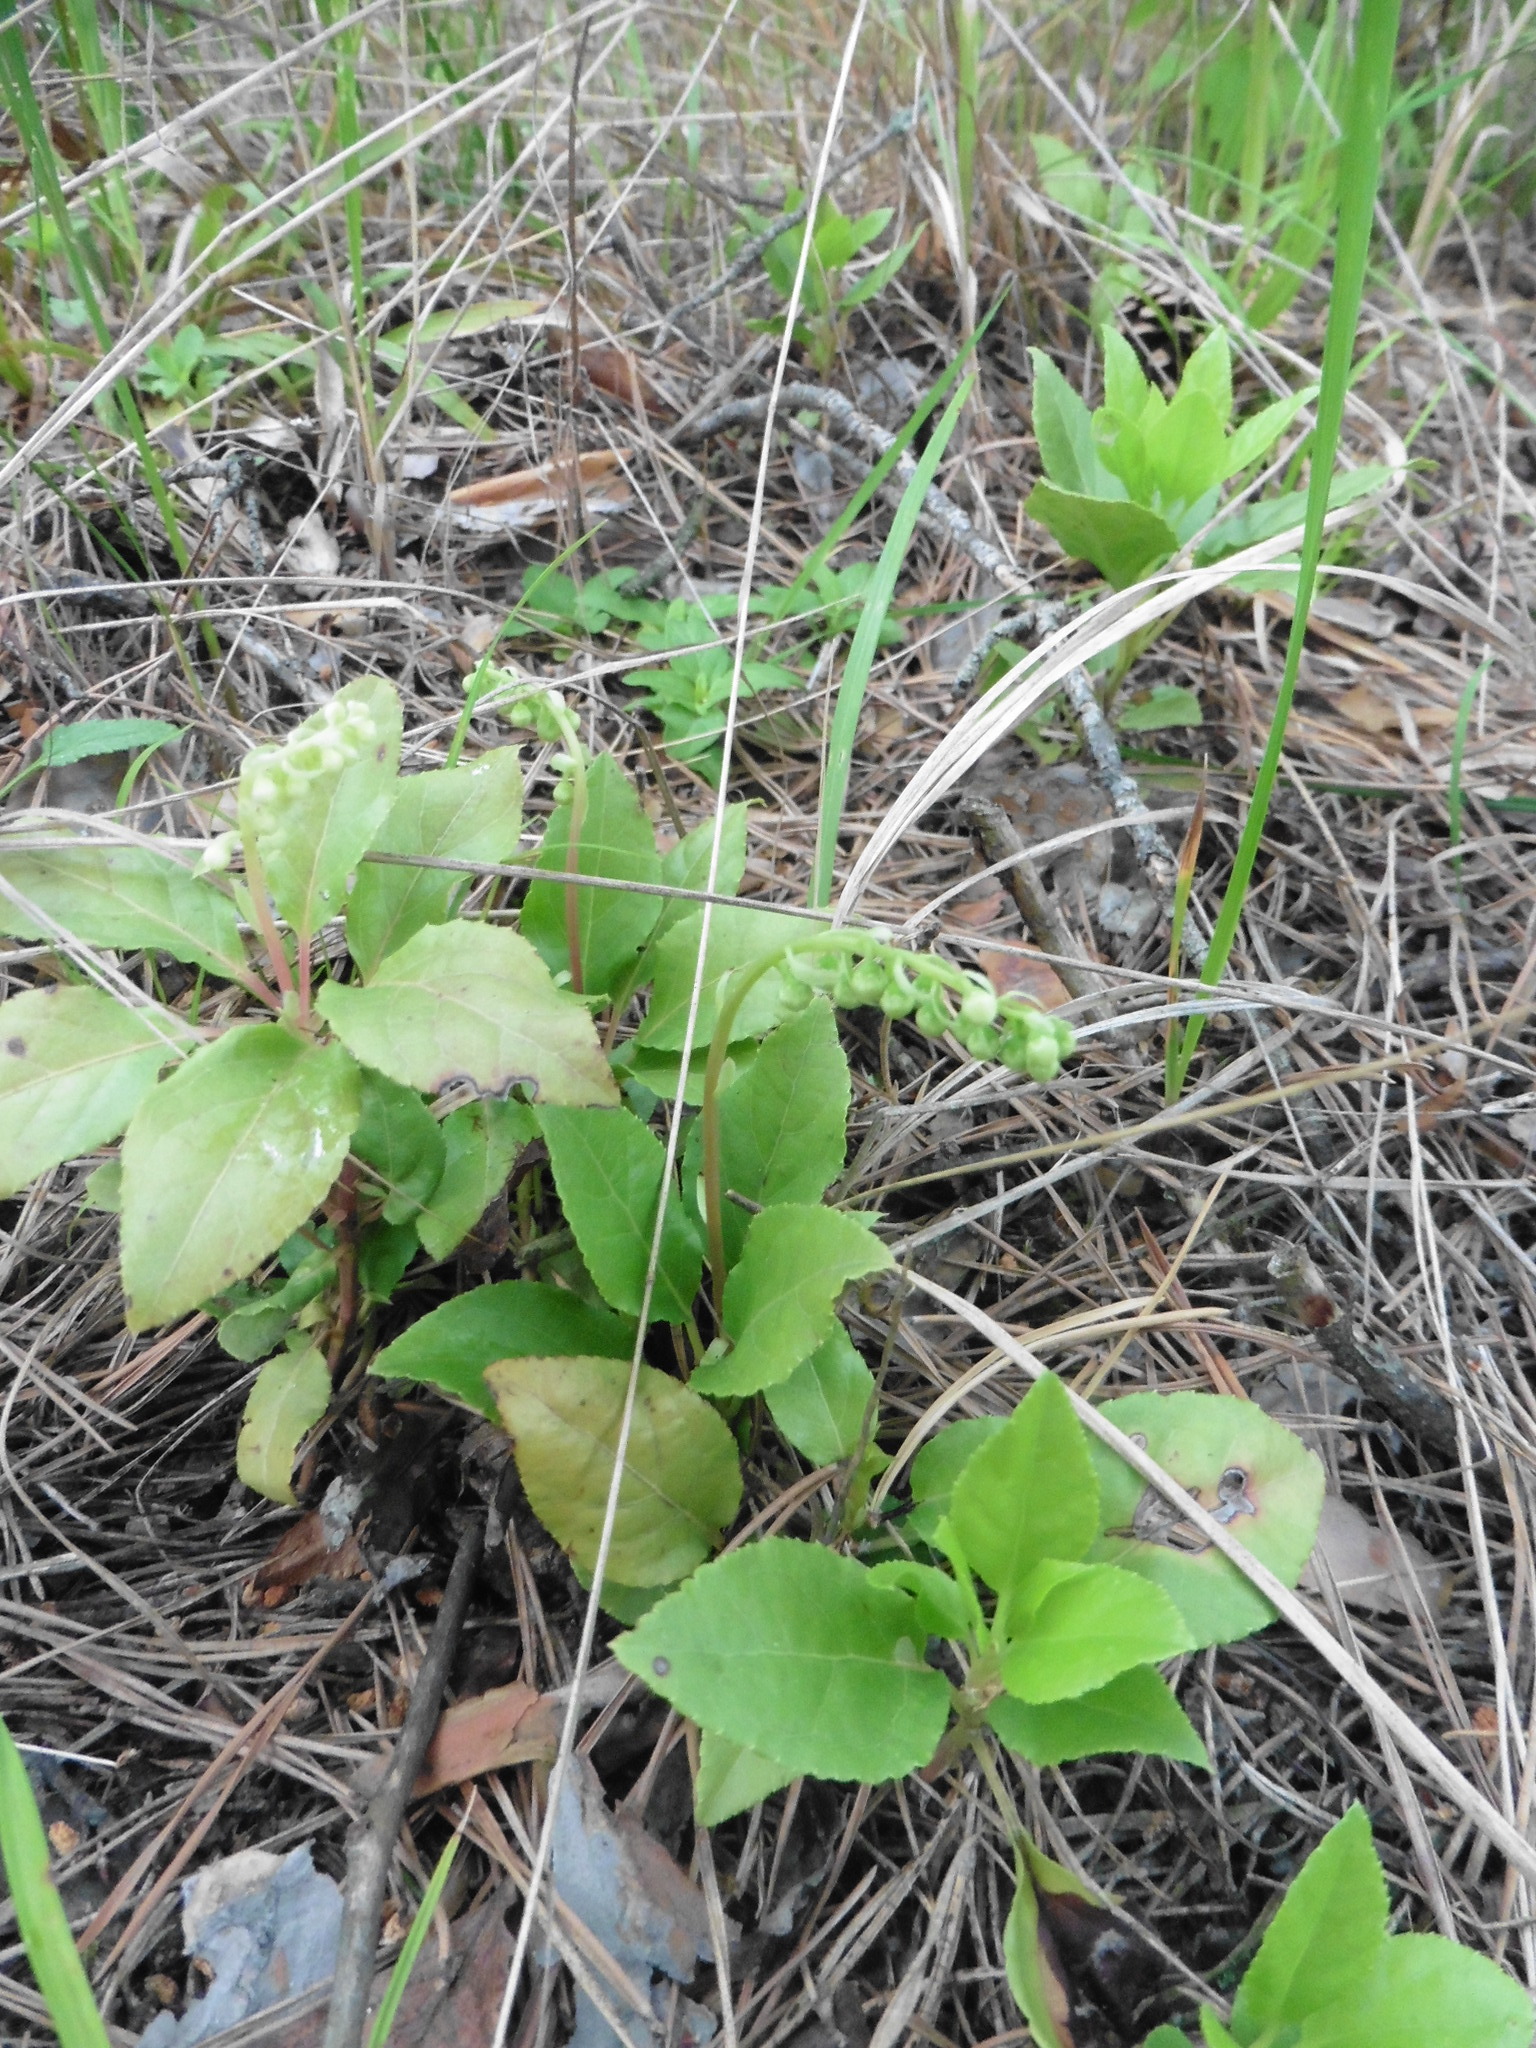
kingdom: Plantae
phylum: Tracheophyta
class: Magnoliopsida
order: Ericales
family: Ericaceae
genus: Orthilia
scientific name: Orthilia secunda
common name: One-sided orthilia
